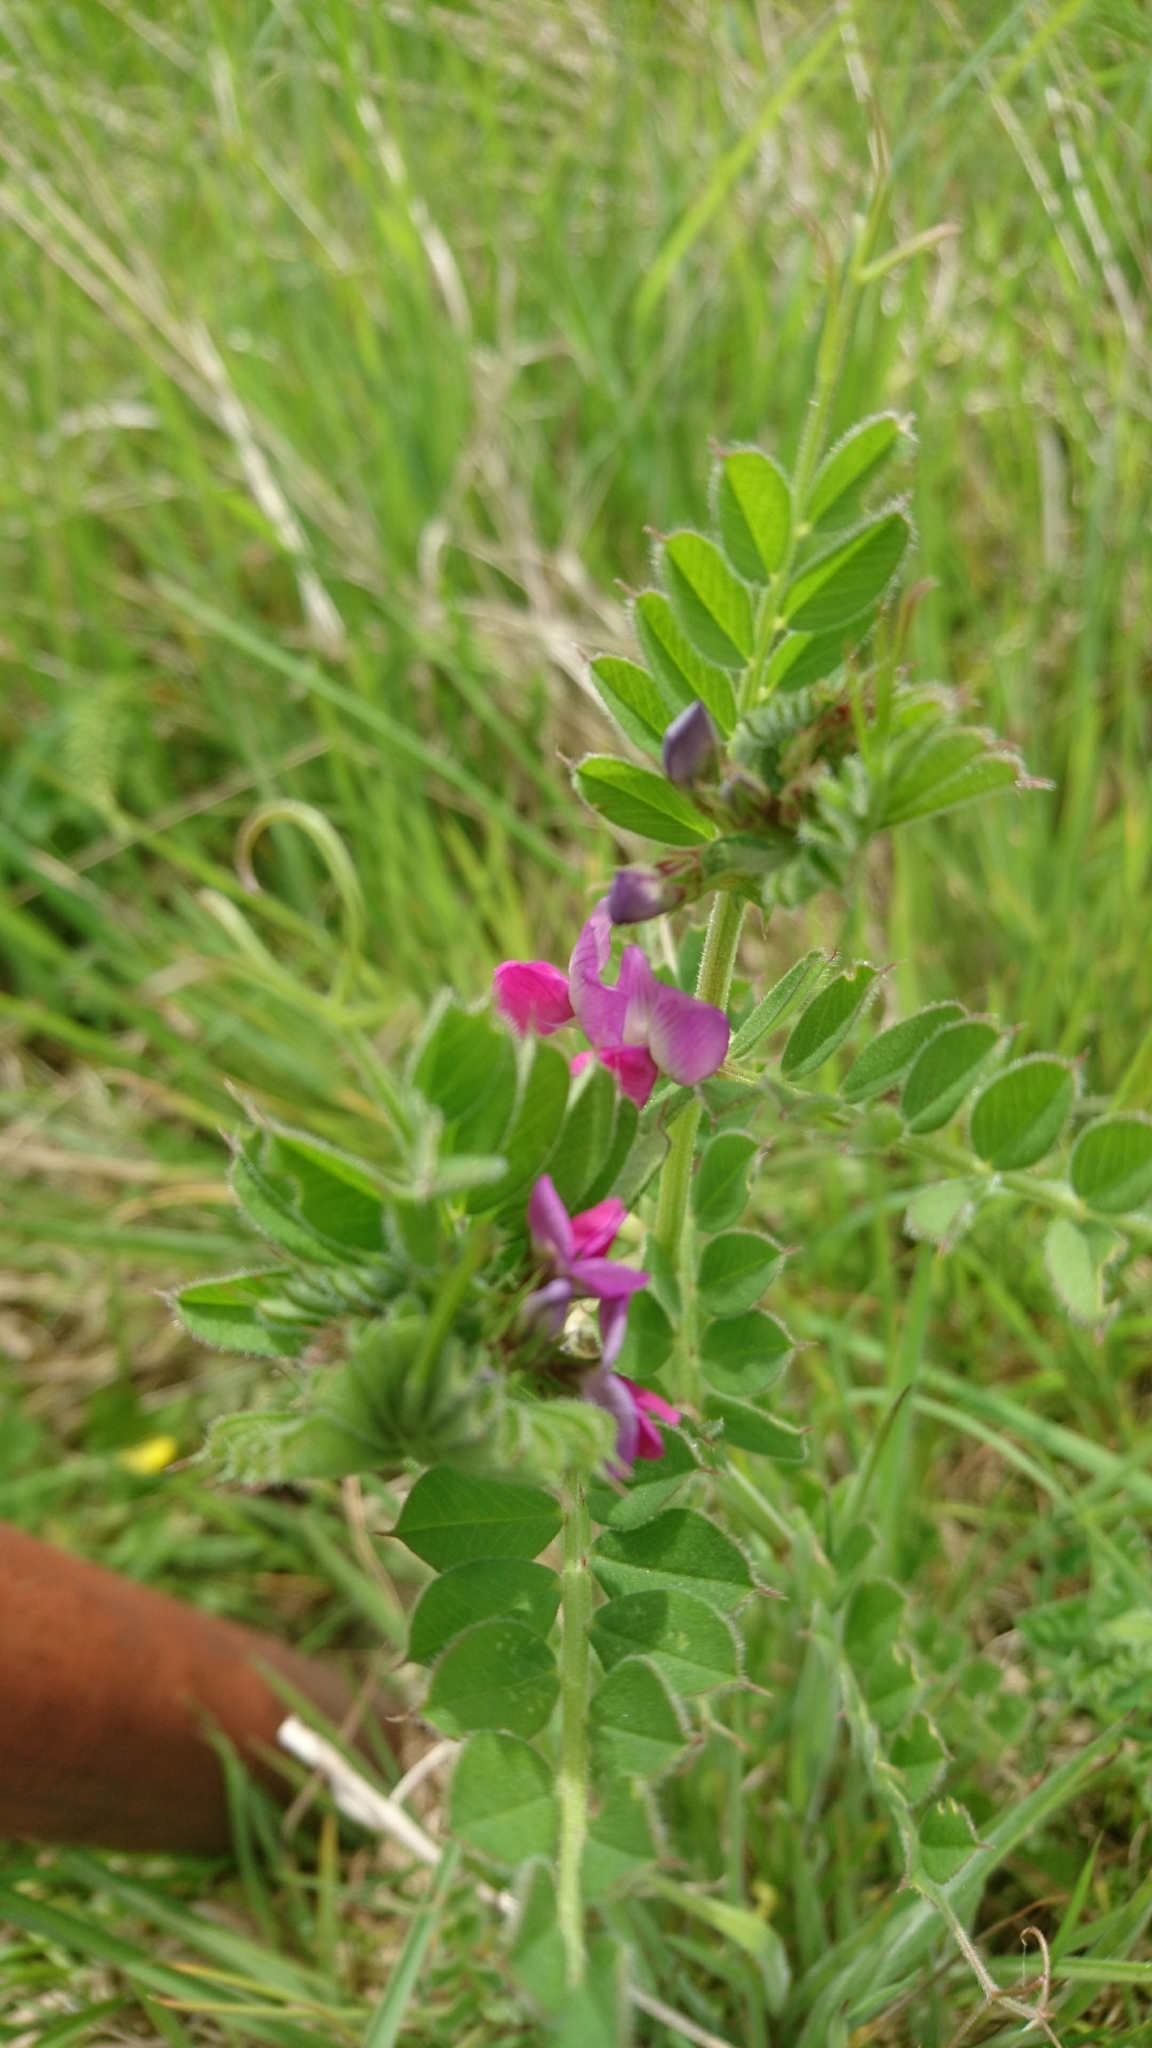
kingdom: Plantae
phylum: Tracheophyta
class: Magnoliopsida
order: Fabales
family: Fabaceae
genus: Vicia
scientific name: Vicia sativa
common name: Garden vetch
